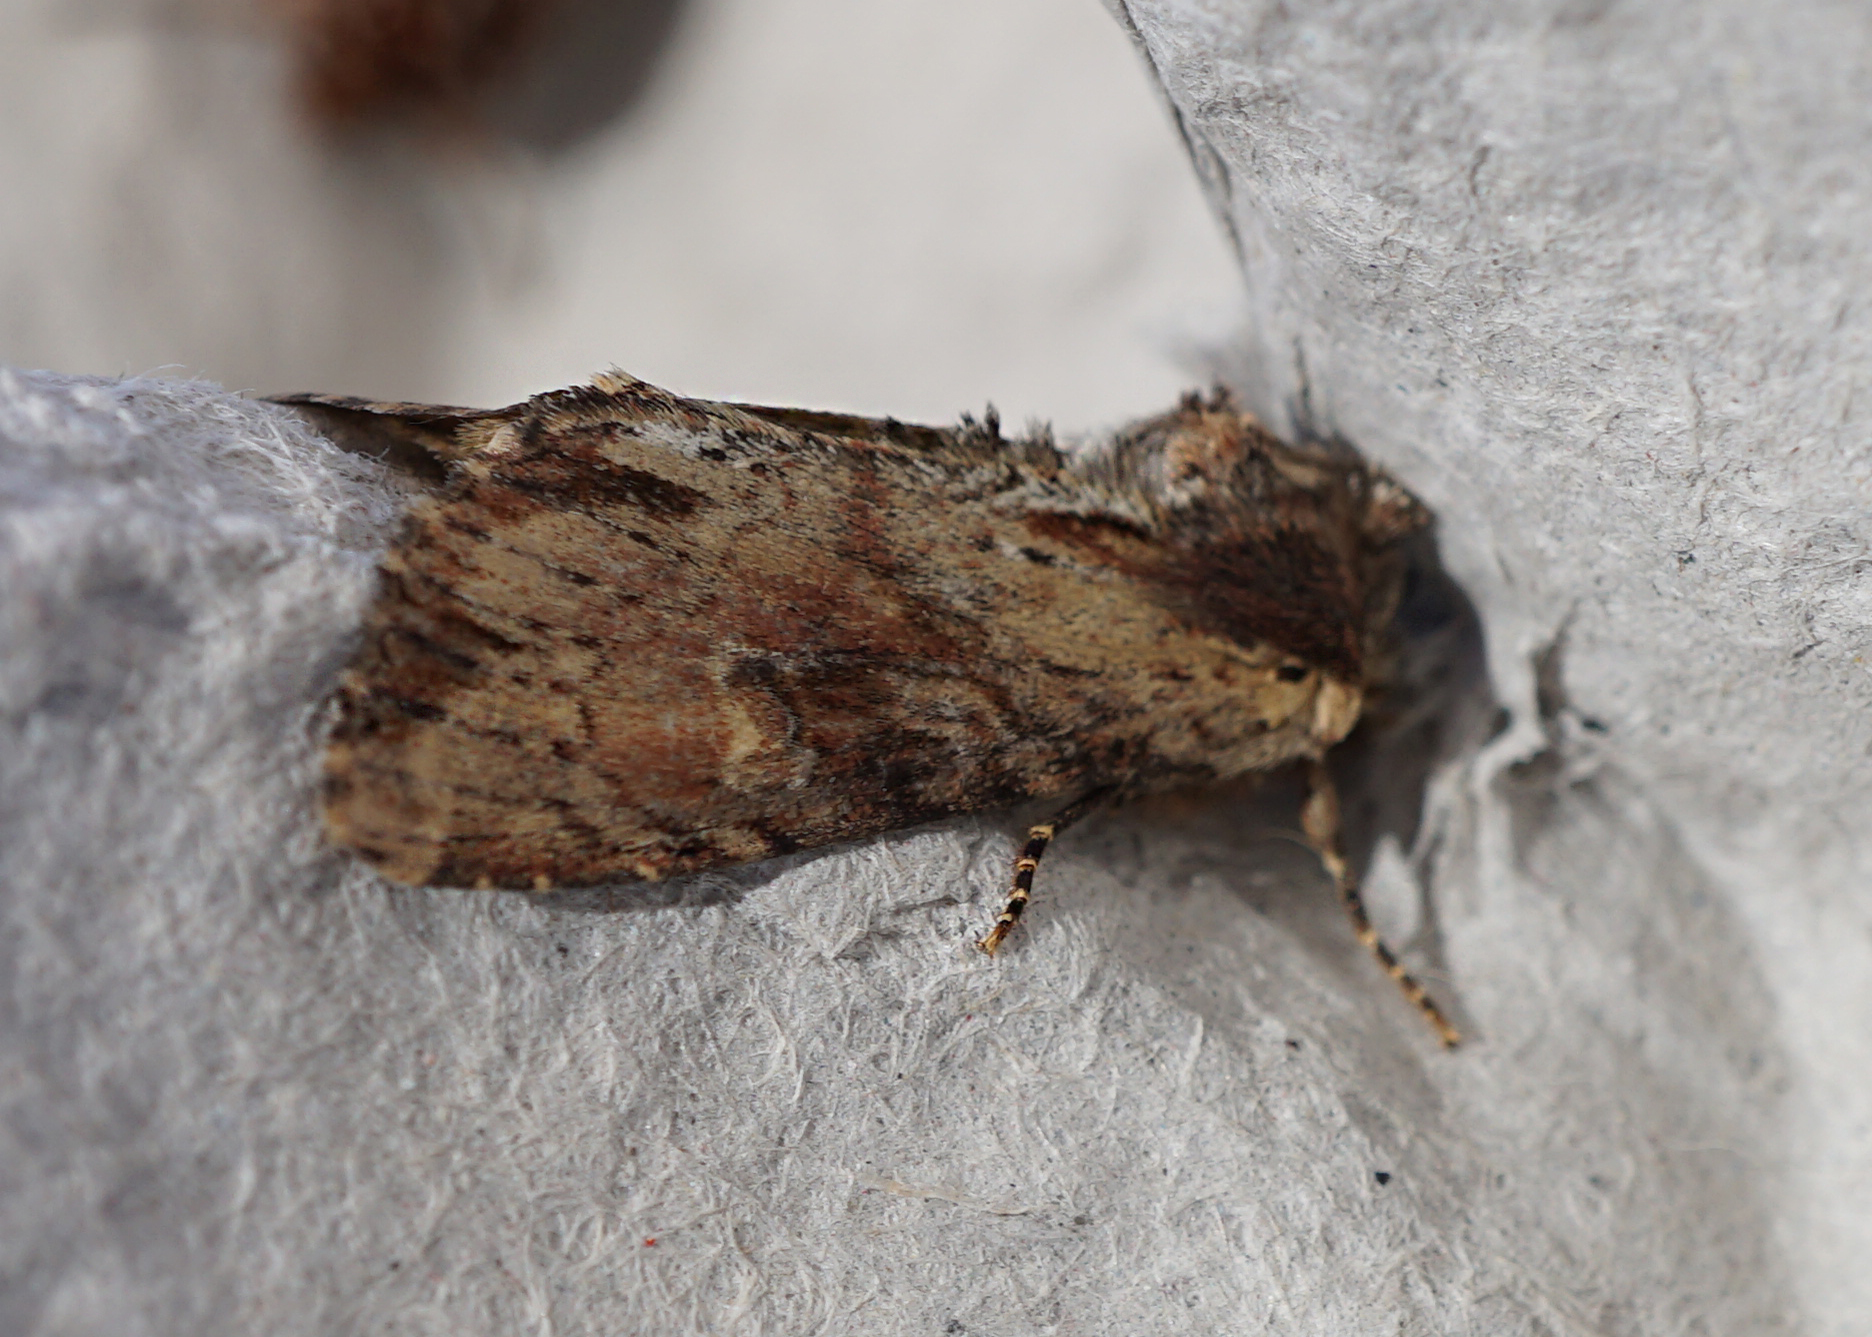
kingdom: Animalia
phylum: Arthropoda
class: Insecta
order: Lepidoptera
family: Noctuidae
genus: Apamea
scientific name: Apamea crenata
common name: Clouded-bordered brindle
